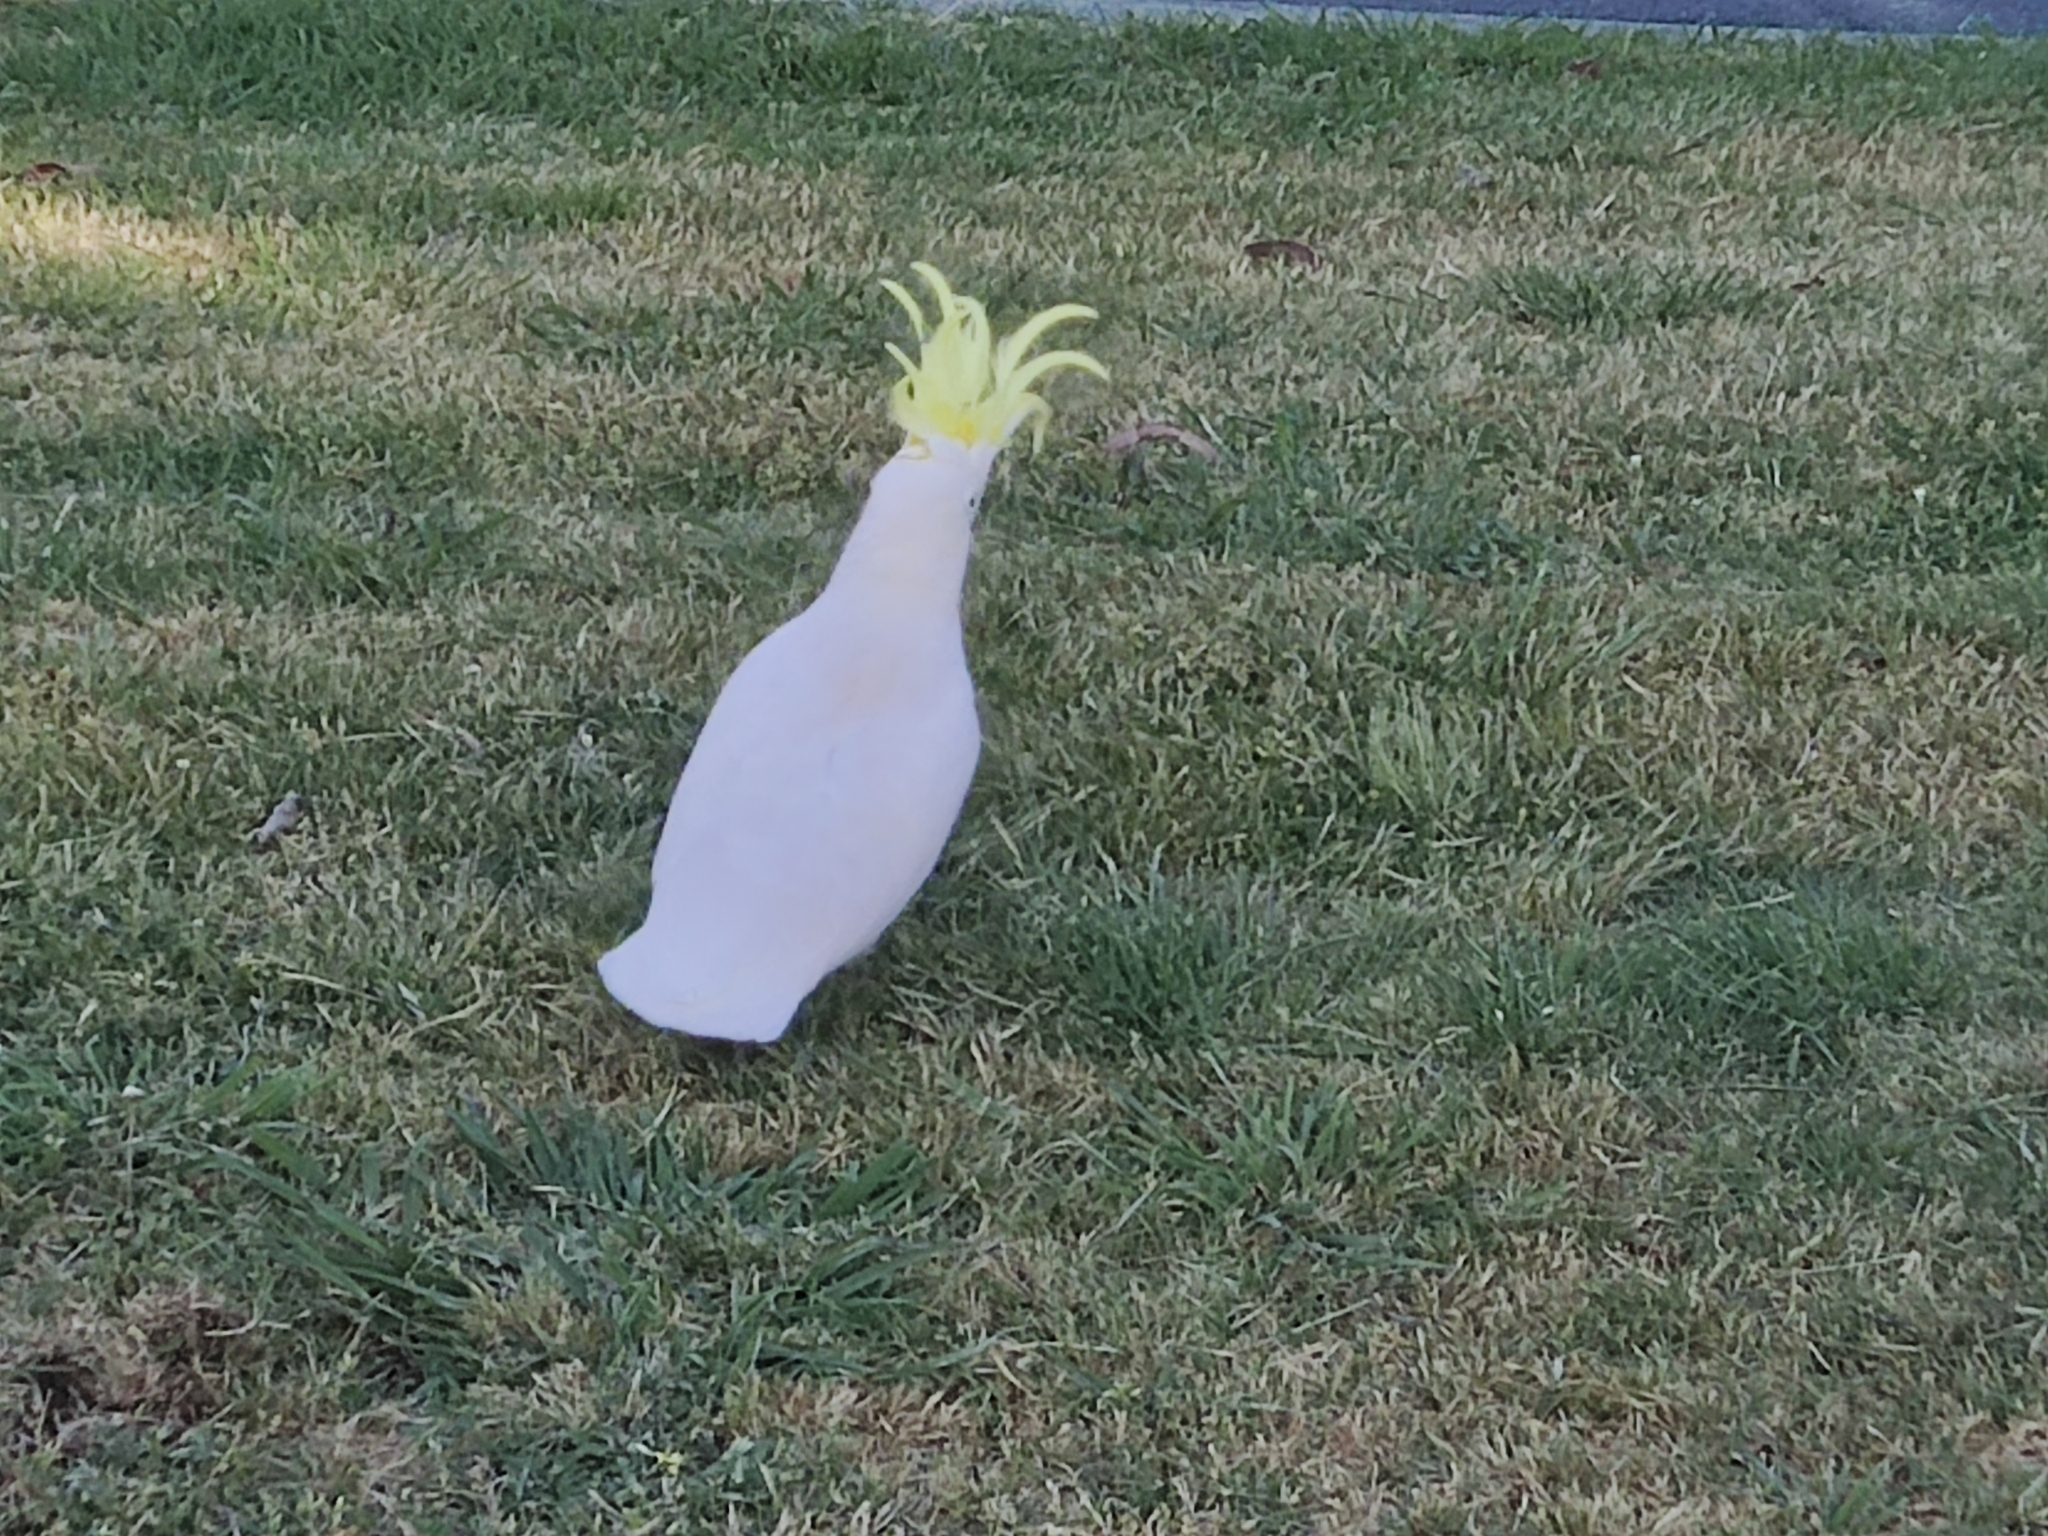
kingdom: Animalia
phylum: Chordata
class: Aves
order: Psittaciformes
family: Psittacidae
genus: Cacatua
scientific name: Cacatua galerita
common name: Sulphur-crested cockatoo
